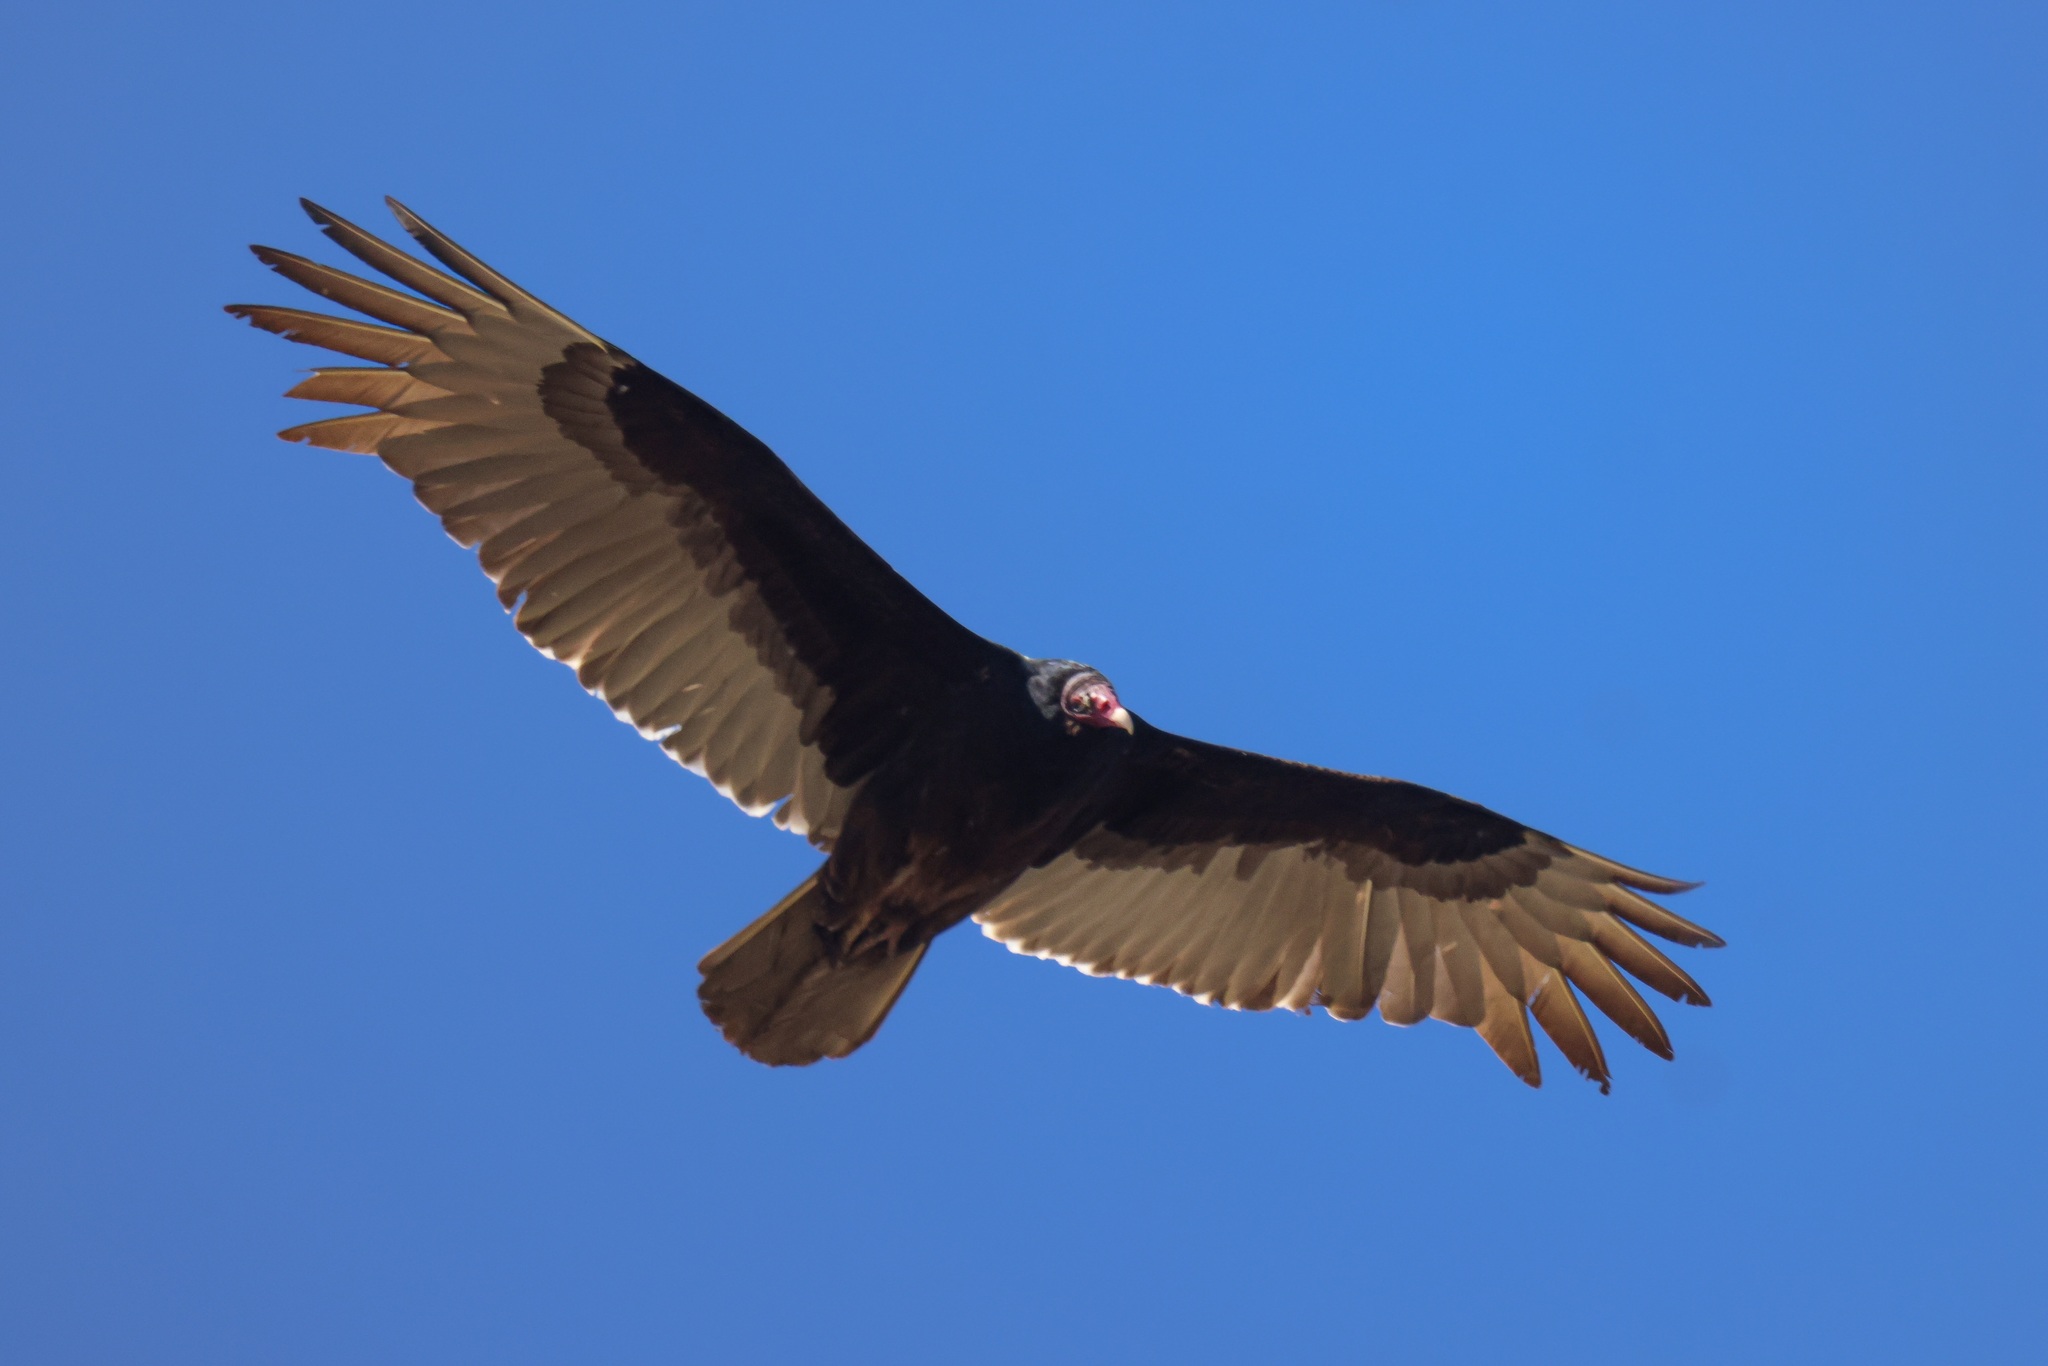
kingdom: Animalia
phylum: Chordata
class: Aves
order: Accipitriformes
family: Cathartidae
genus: Cathartes
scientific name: Cathartes aura
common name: Turkey vulture
